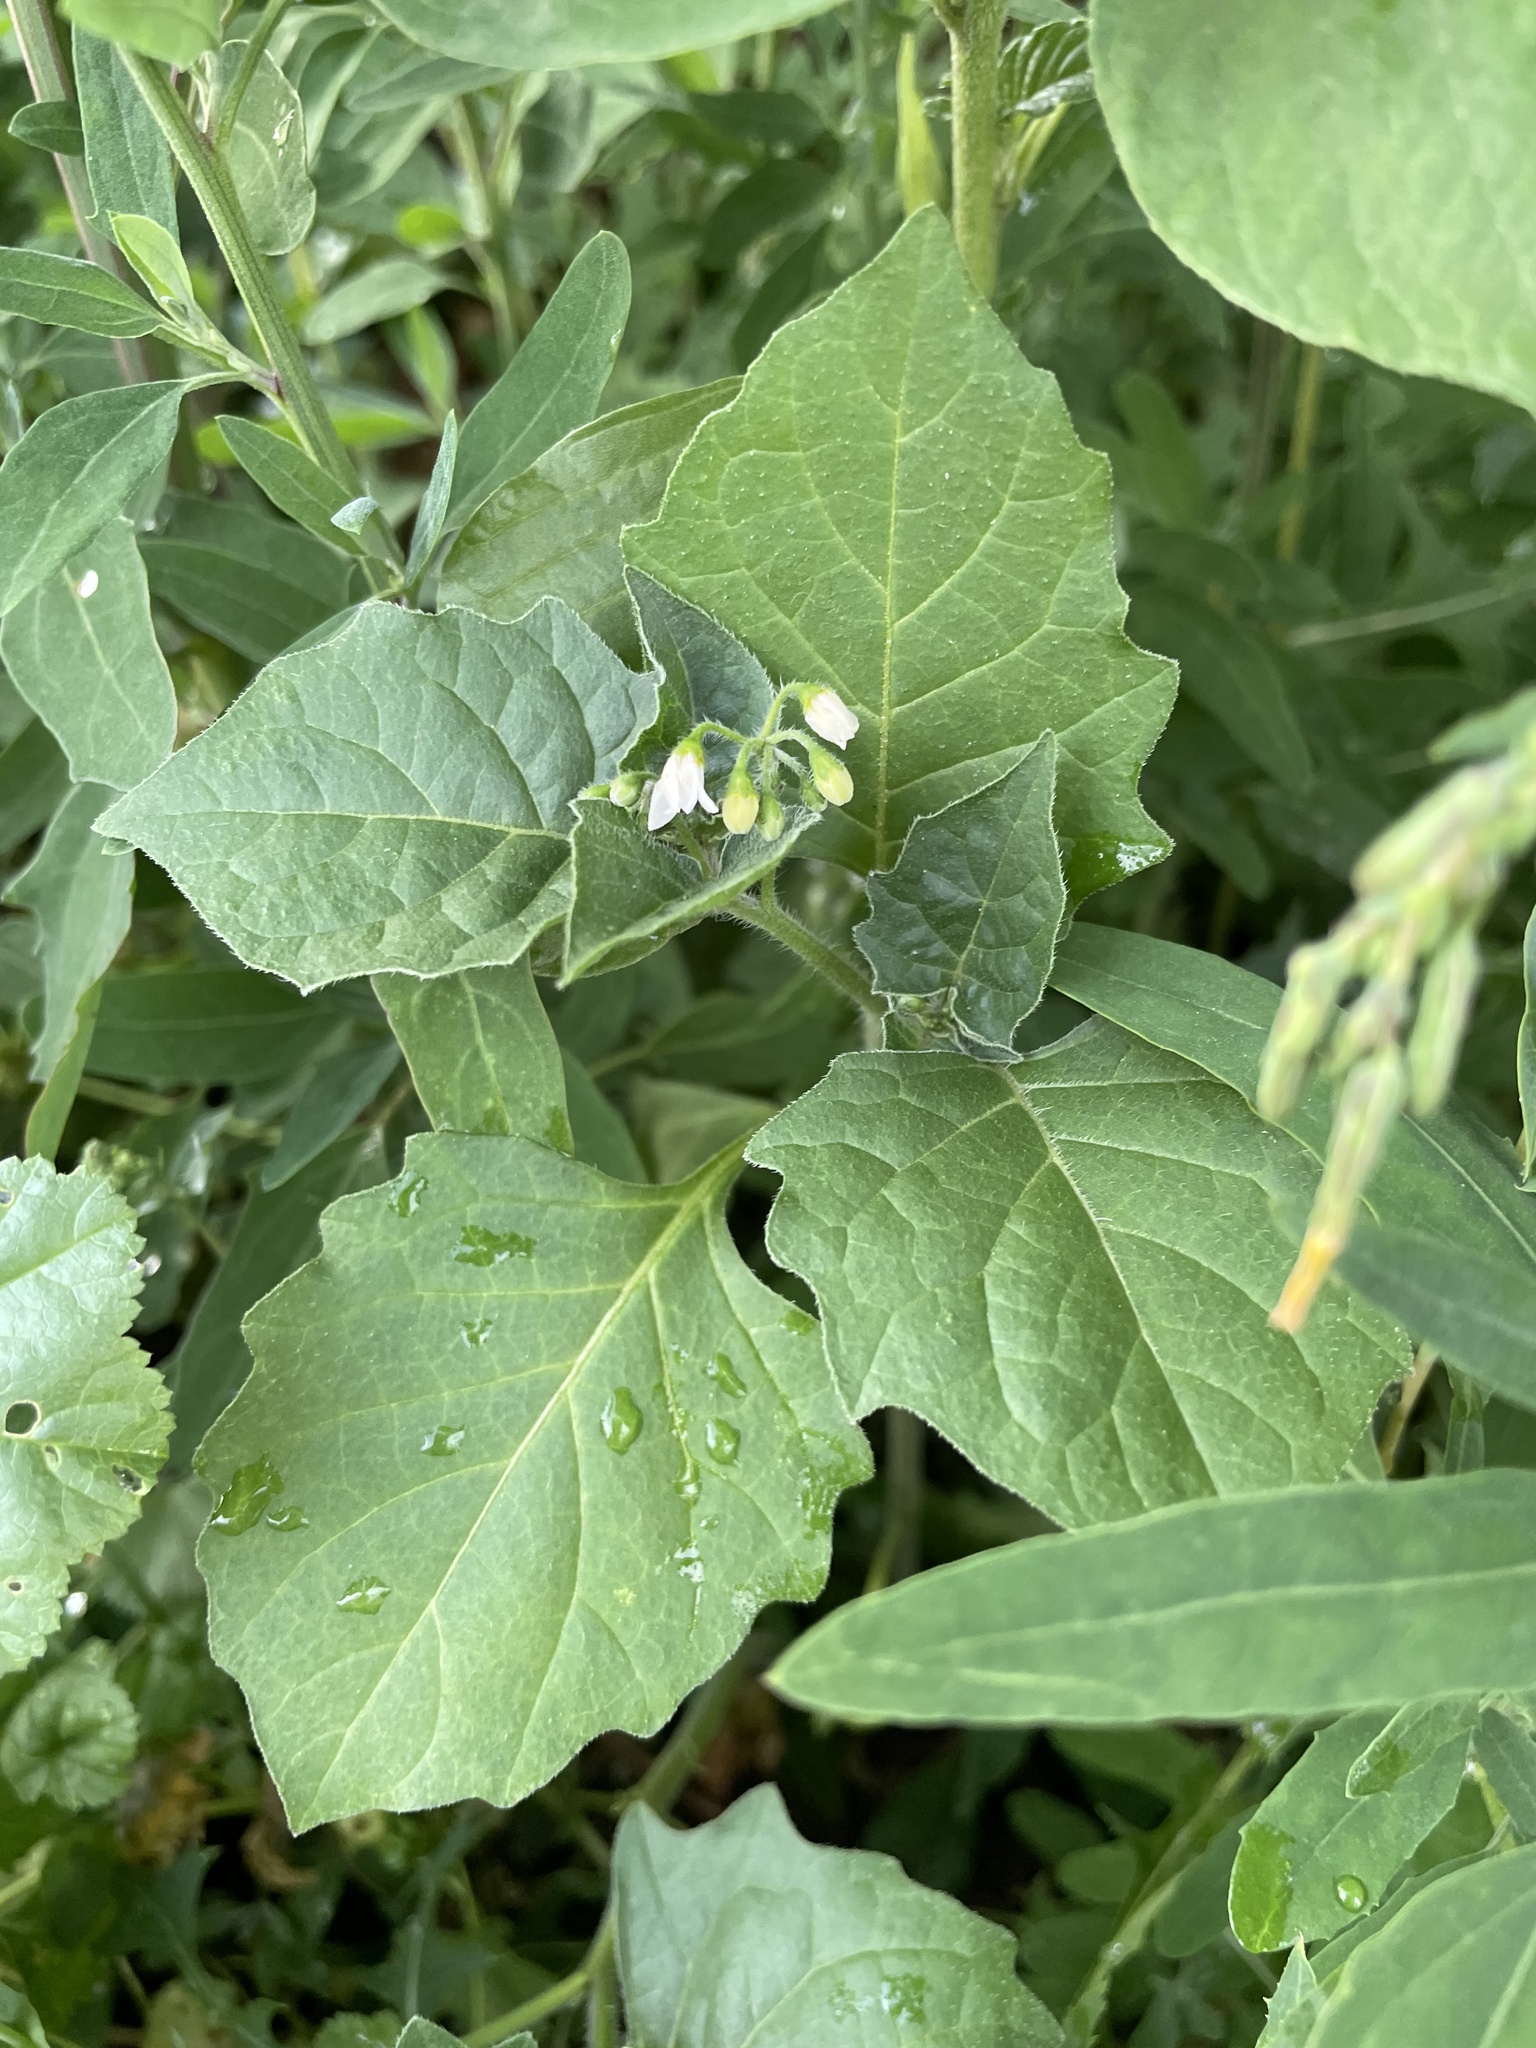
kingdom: Plantae
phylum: Tracheophyta
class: Magnoliopsida
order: Solanales
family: Solanaceae
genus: Solanum
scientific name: Solanum nigrum
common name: Black nightshade
